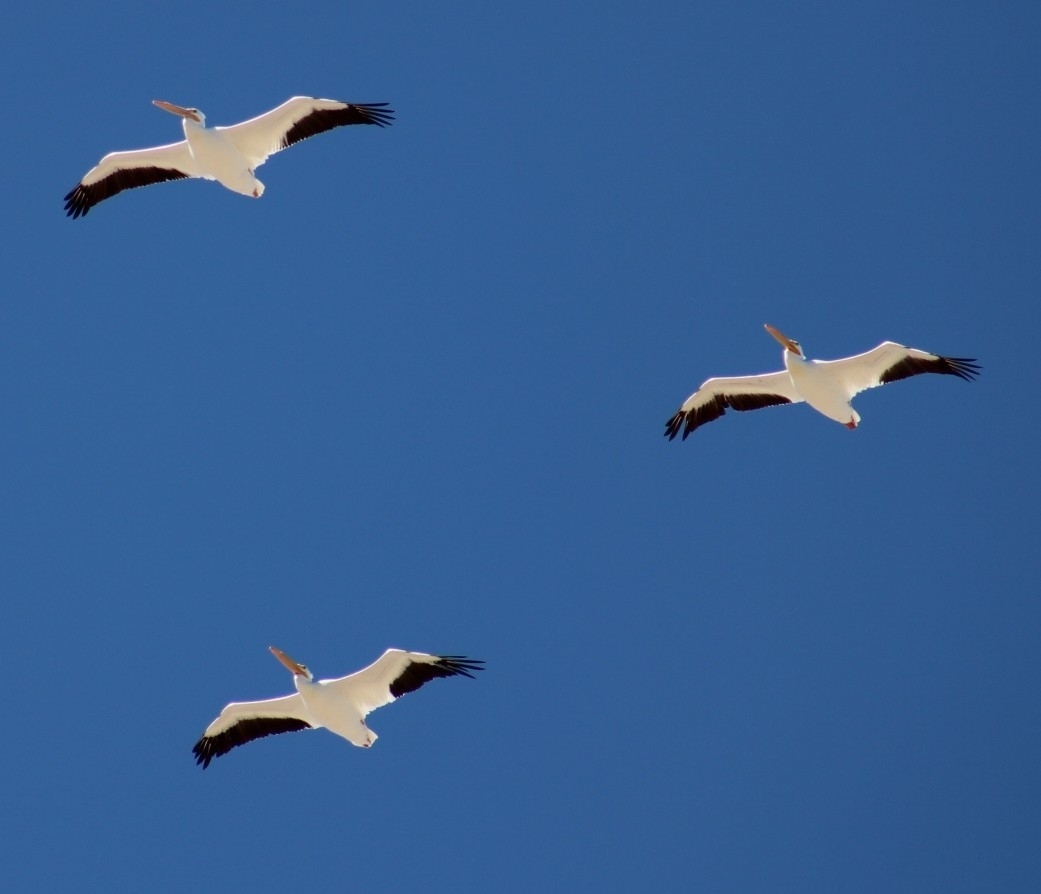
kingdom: Animalia
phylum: Chordata
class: Aves
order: Pelecaniformes
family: Pelecanidae
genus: Pelecanus
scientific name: Pelecanus erythrorhynchos
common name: American white pelican
